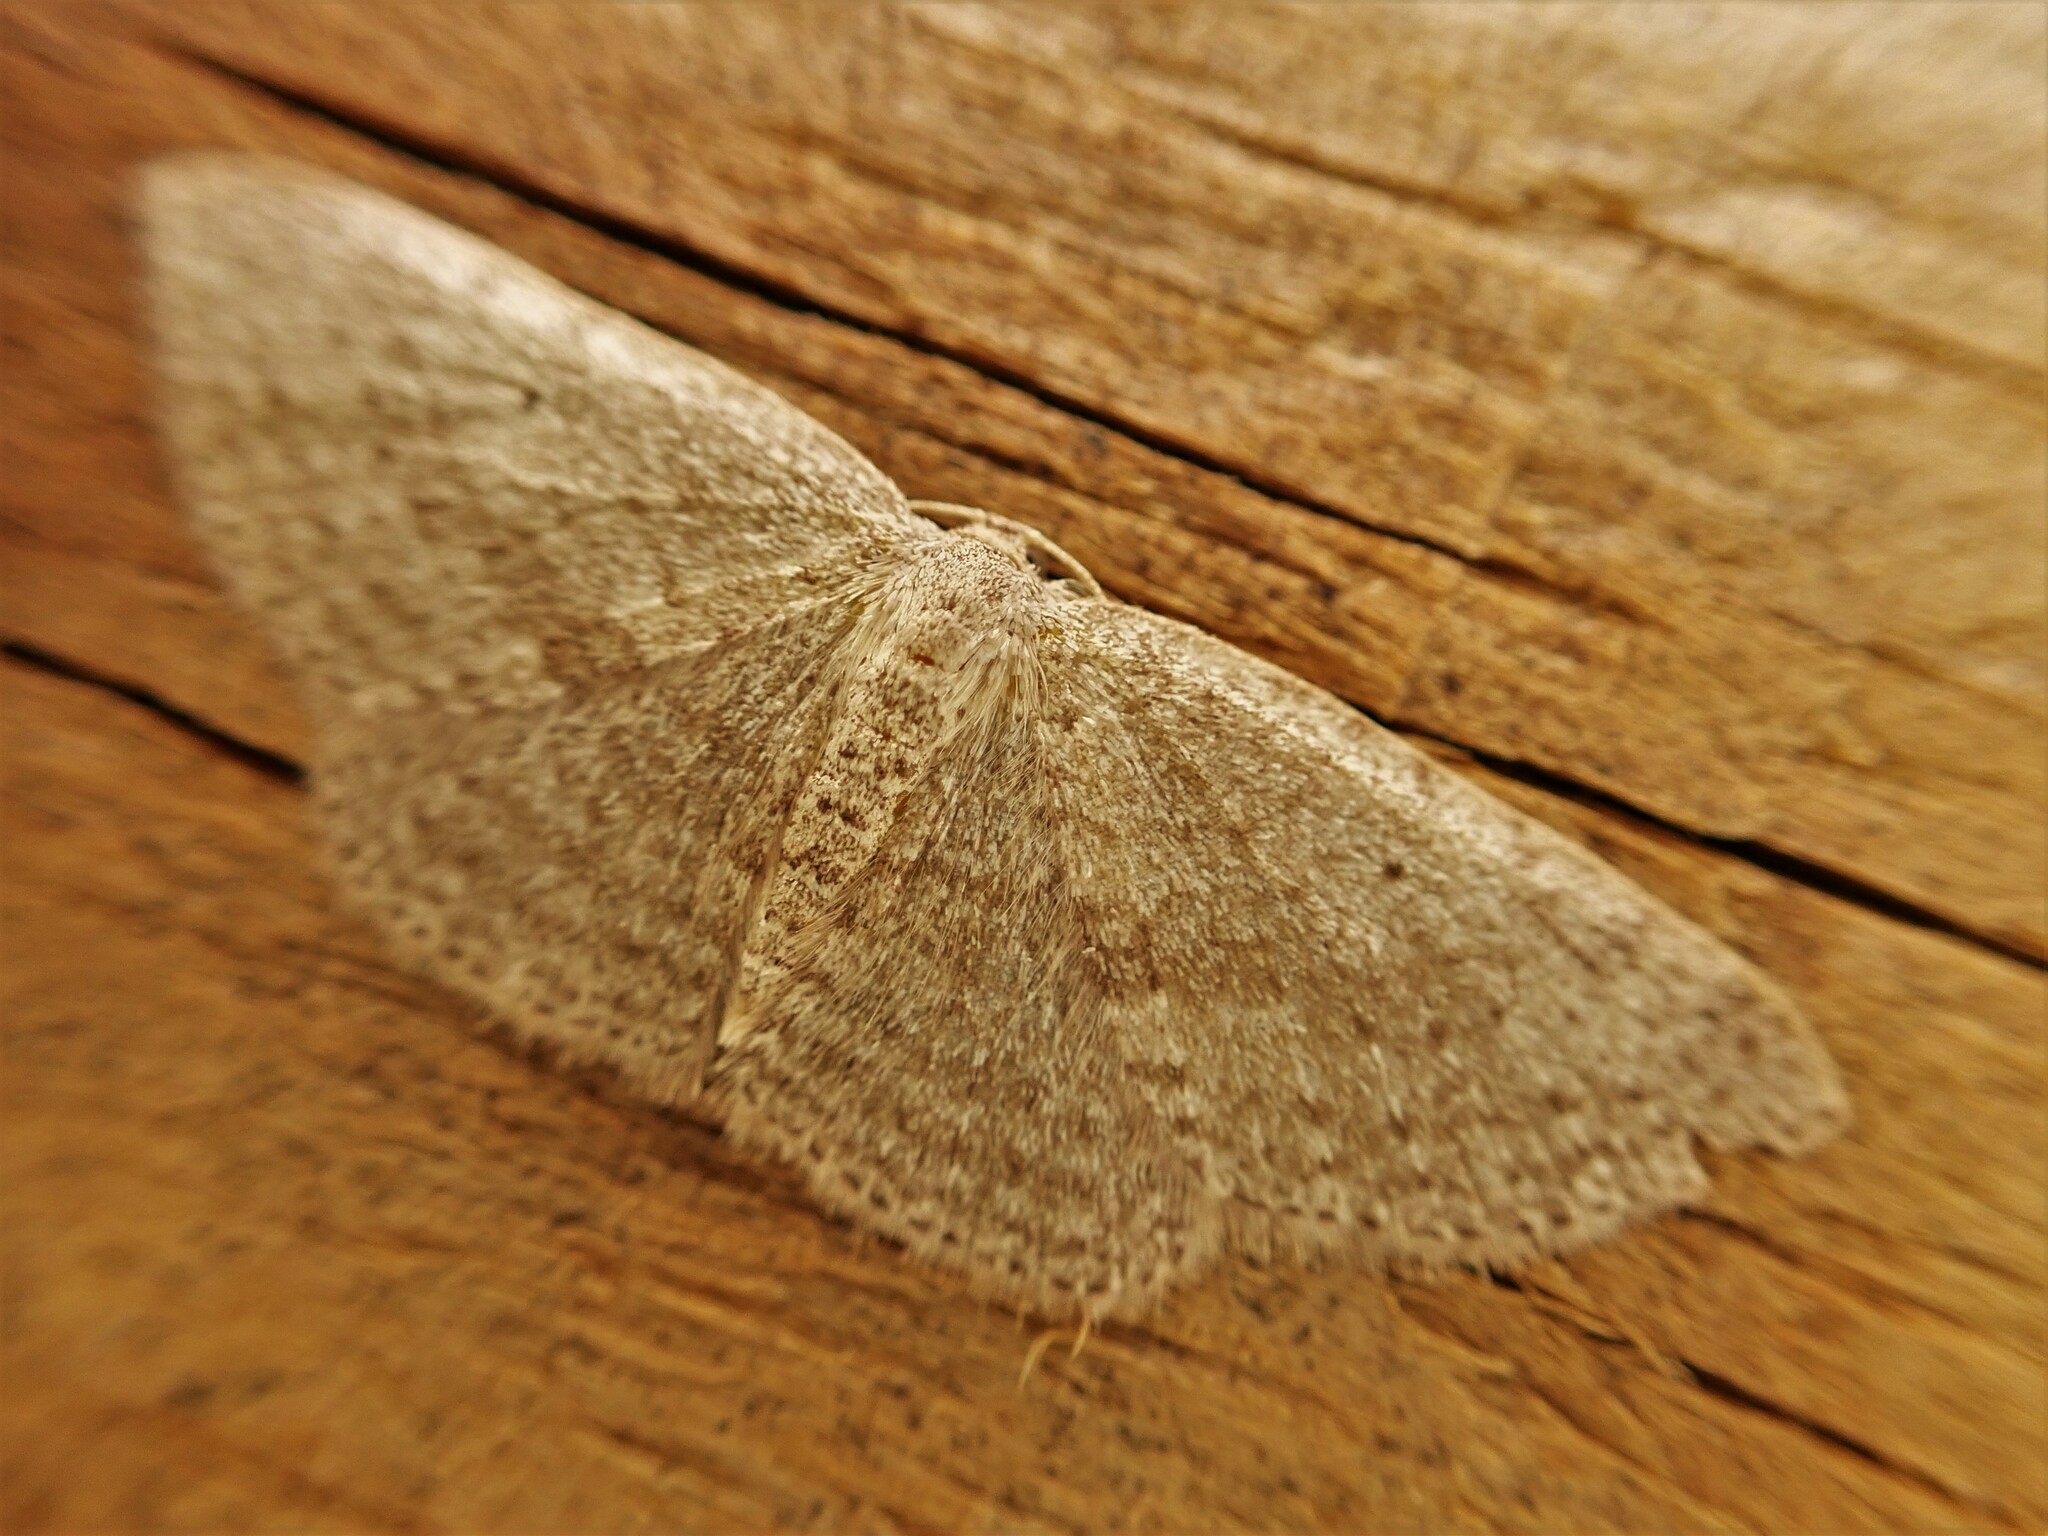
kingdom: Animalia
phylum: Arthropoda
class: Insecta
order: Lepidoptera
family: Geometridae
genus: Poecilasthena
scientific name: Poecilasthena schistaria
